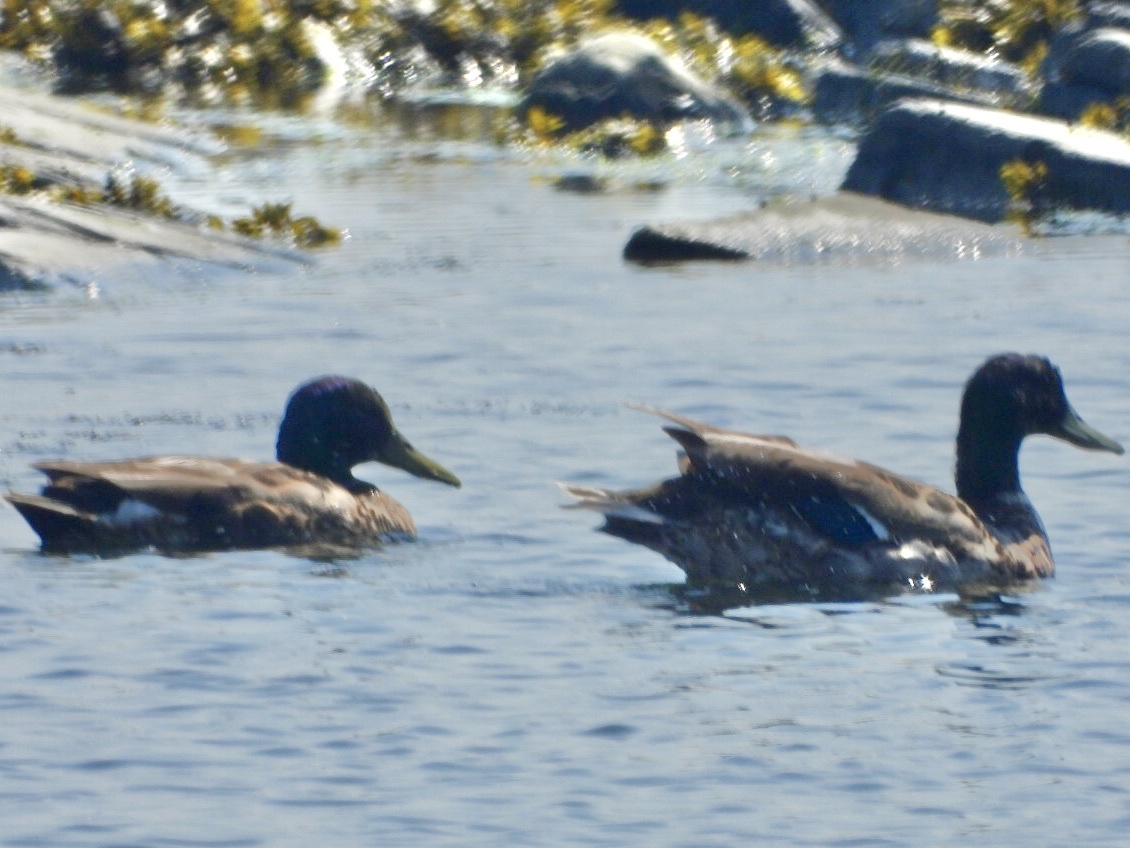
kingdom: Animalia
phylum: Chordata
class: Aves
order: Anseriformes
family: Anatidae
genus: Anas
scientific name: Anas platyrhynchos
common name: Mallard
